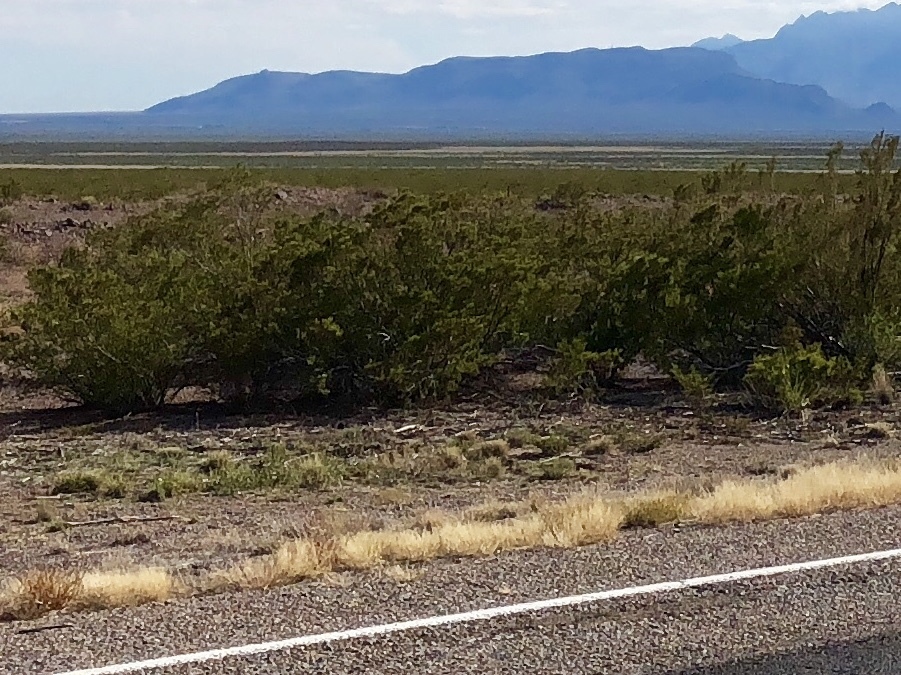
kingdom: Plantae
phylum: Tracheophyta
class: Magnoliopsida
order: Zygophyllales
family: Zygophyllaceae
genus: Larrea
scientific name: Larrea tridentata
